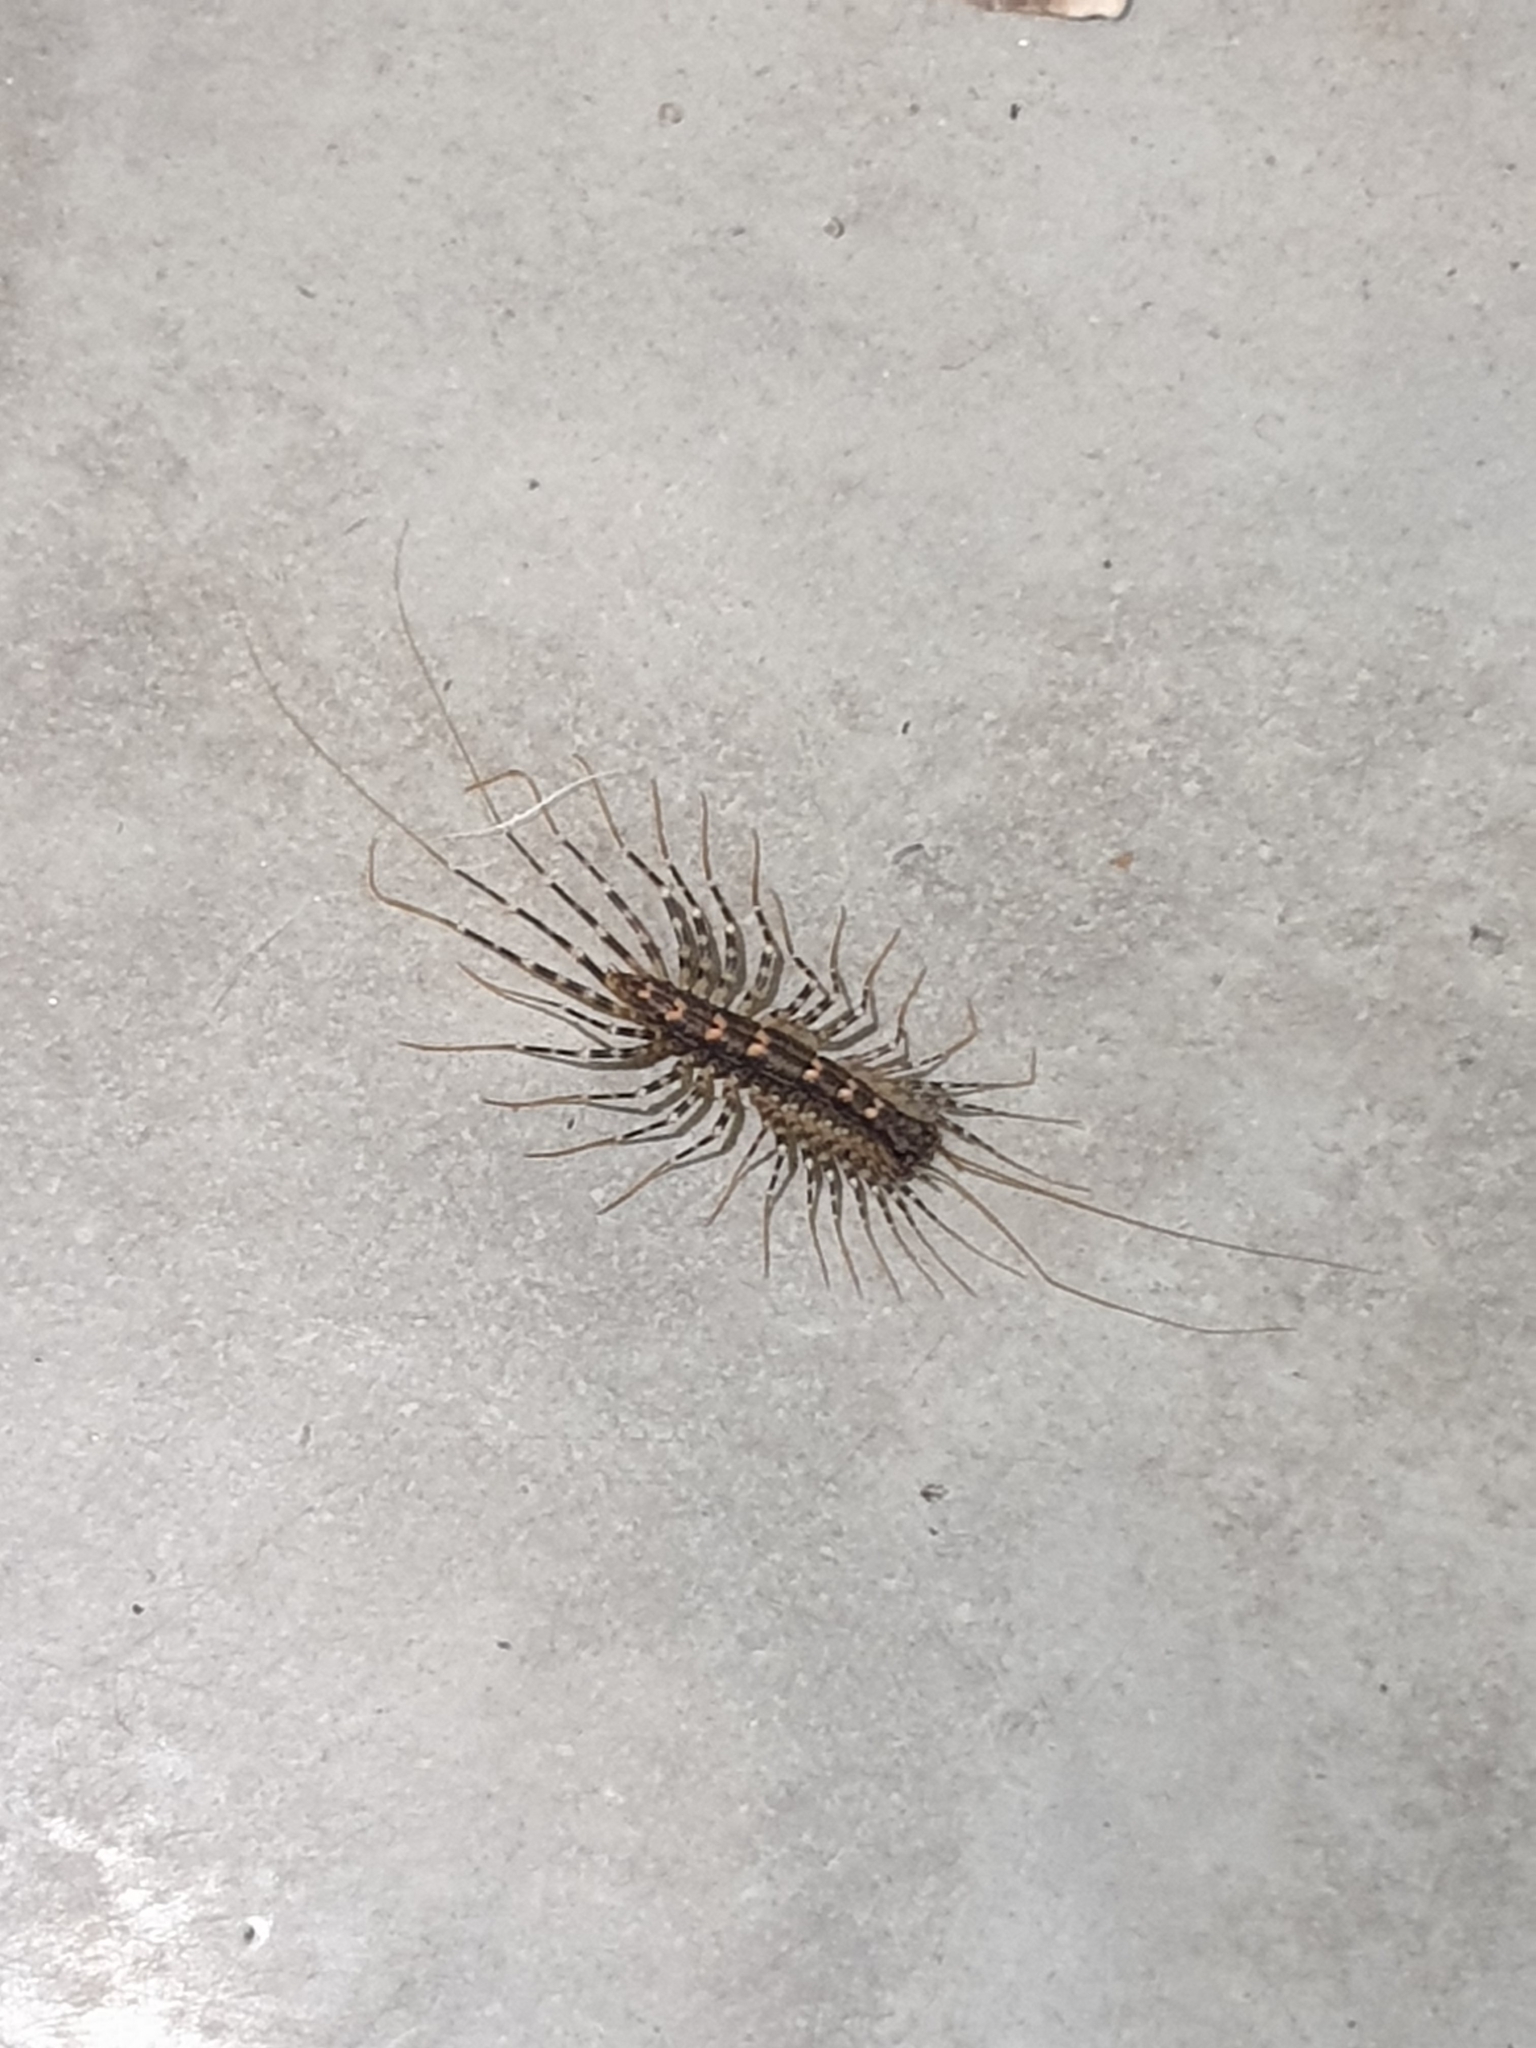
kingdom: Animalia
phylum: Arthropoda
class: Chilopoda
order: Scutigeromorpha
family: Scutigeridae
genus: Allothereua
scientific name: Allothereua maculata
